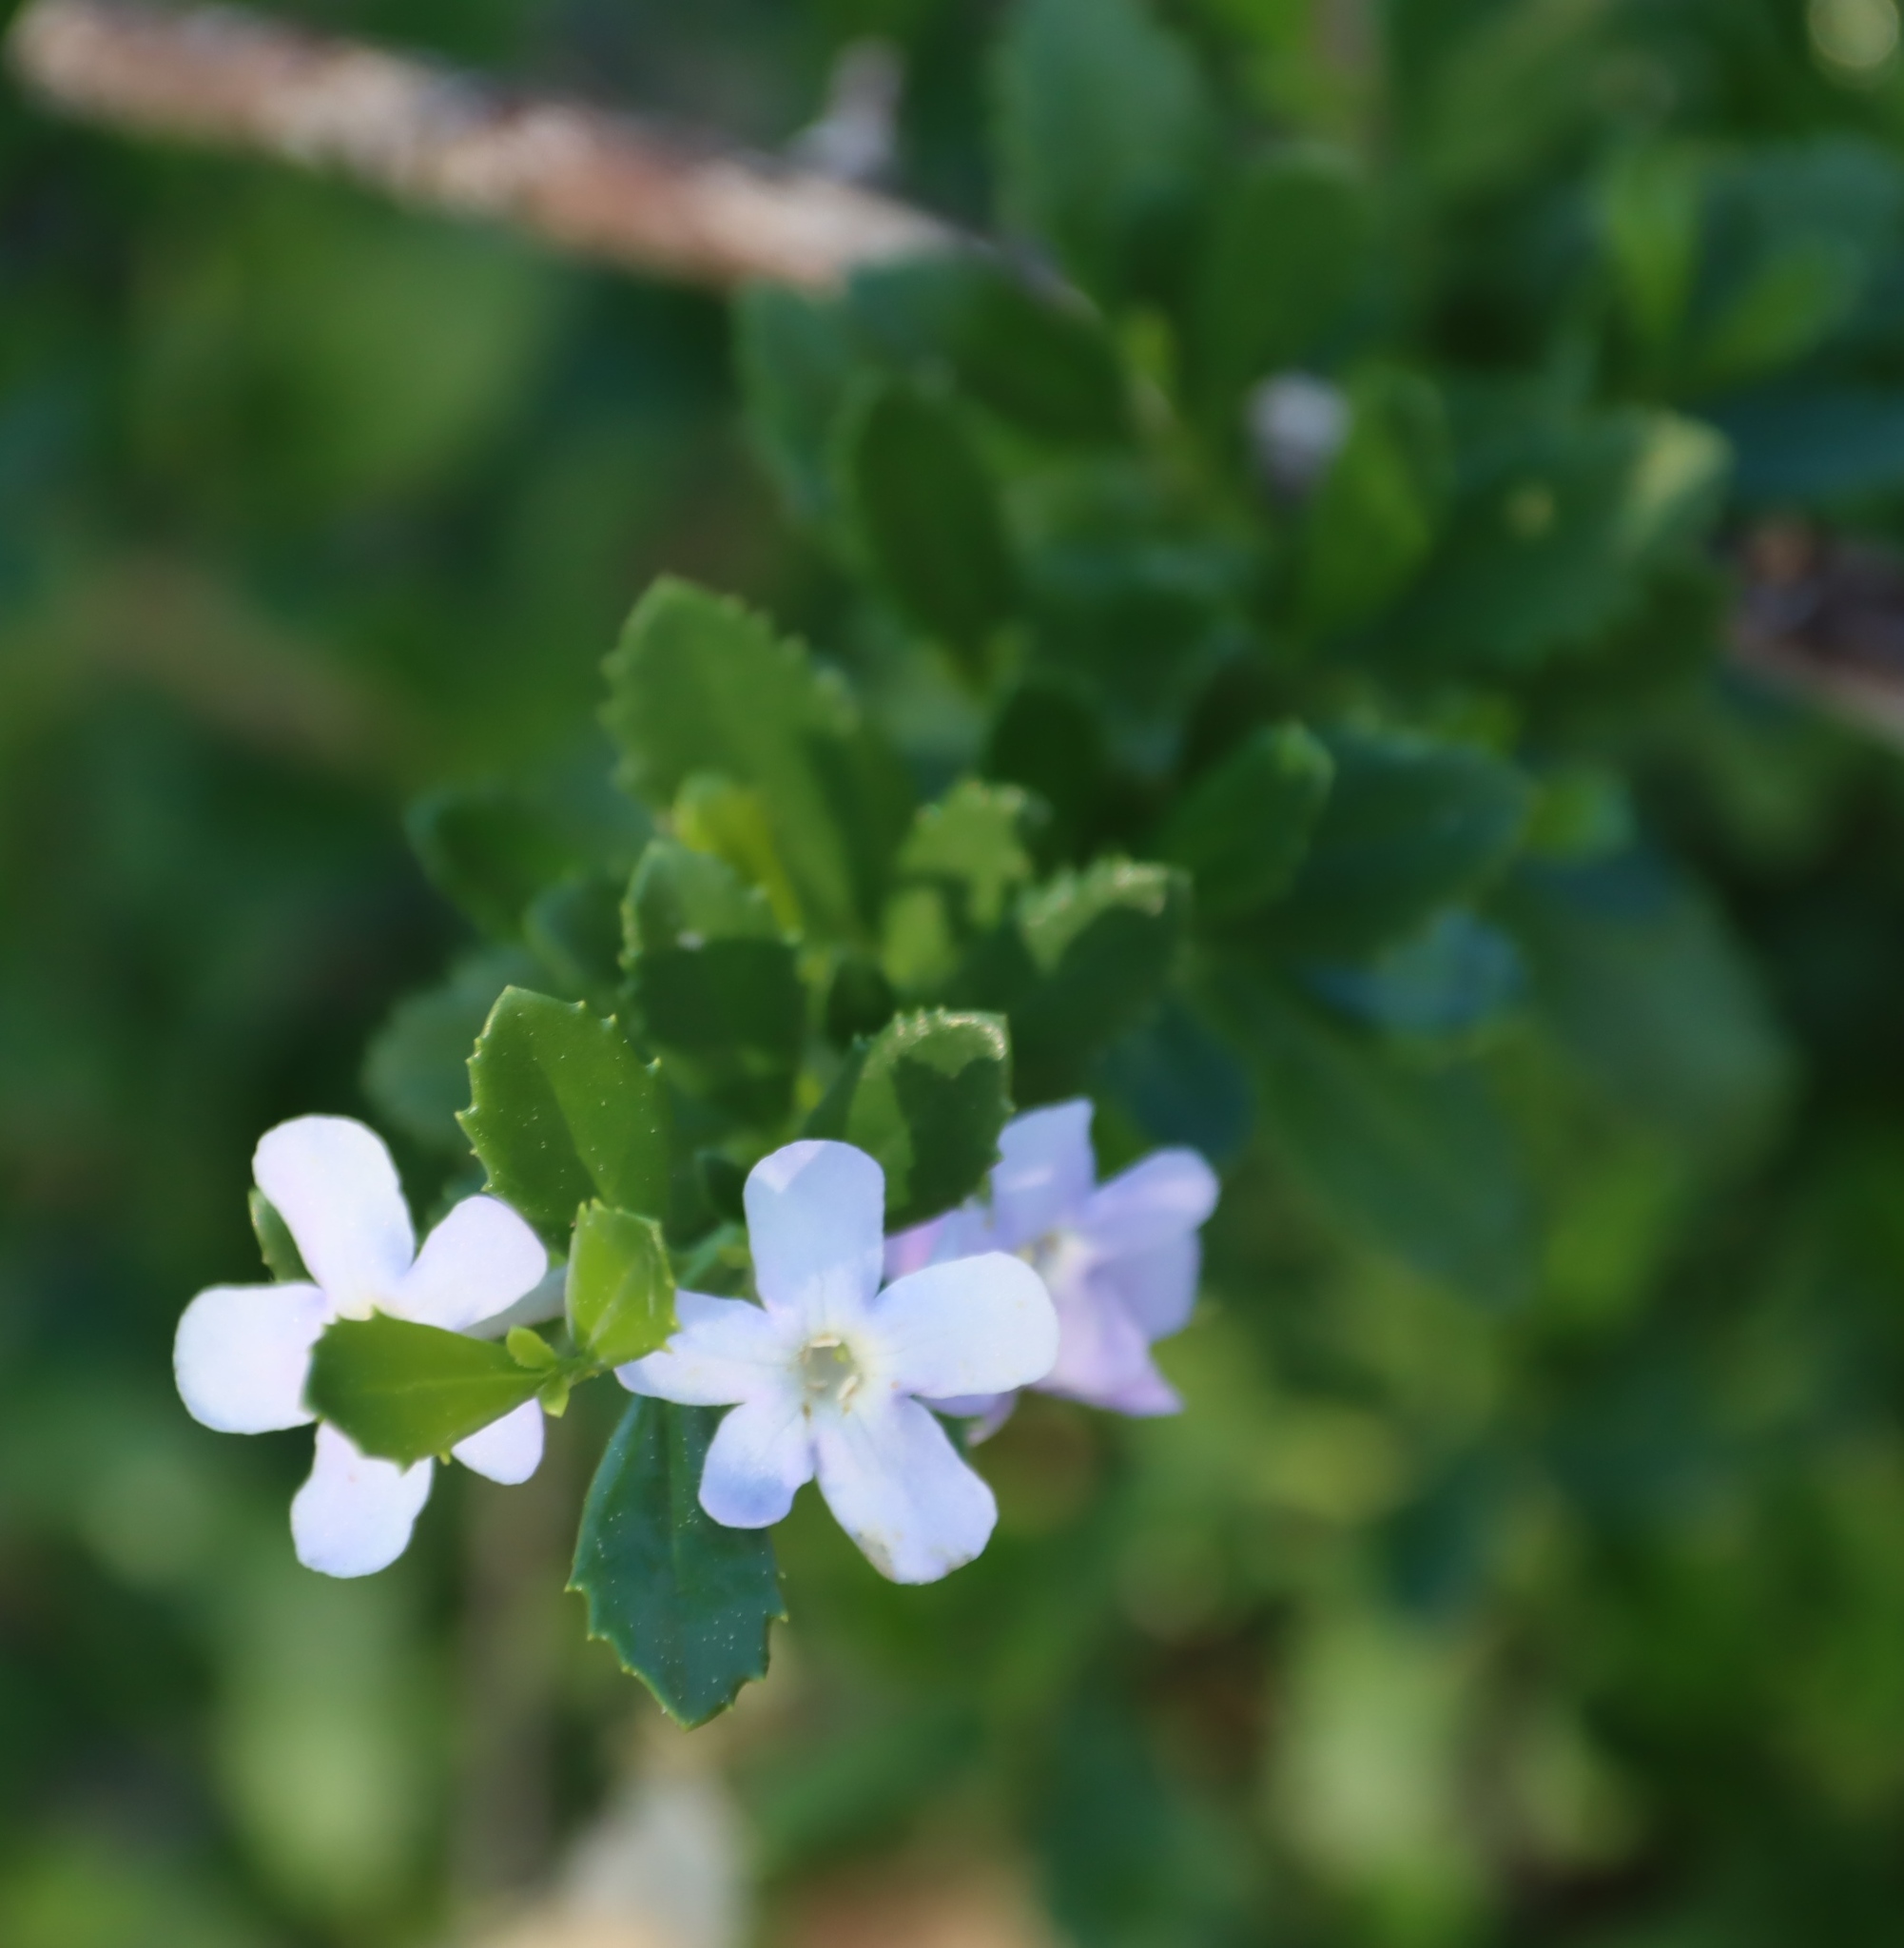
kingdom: Plantae
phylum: Tracheophyta
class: Magnoliopsida
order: Lamiales
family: Scrophulariaceae
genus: Oftia
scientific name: Oftia africana
